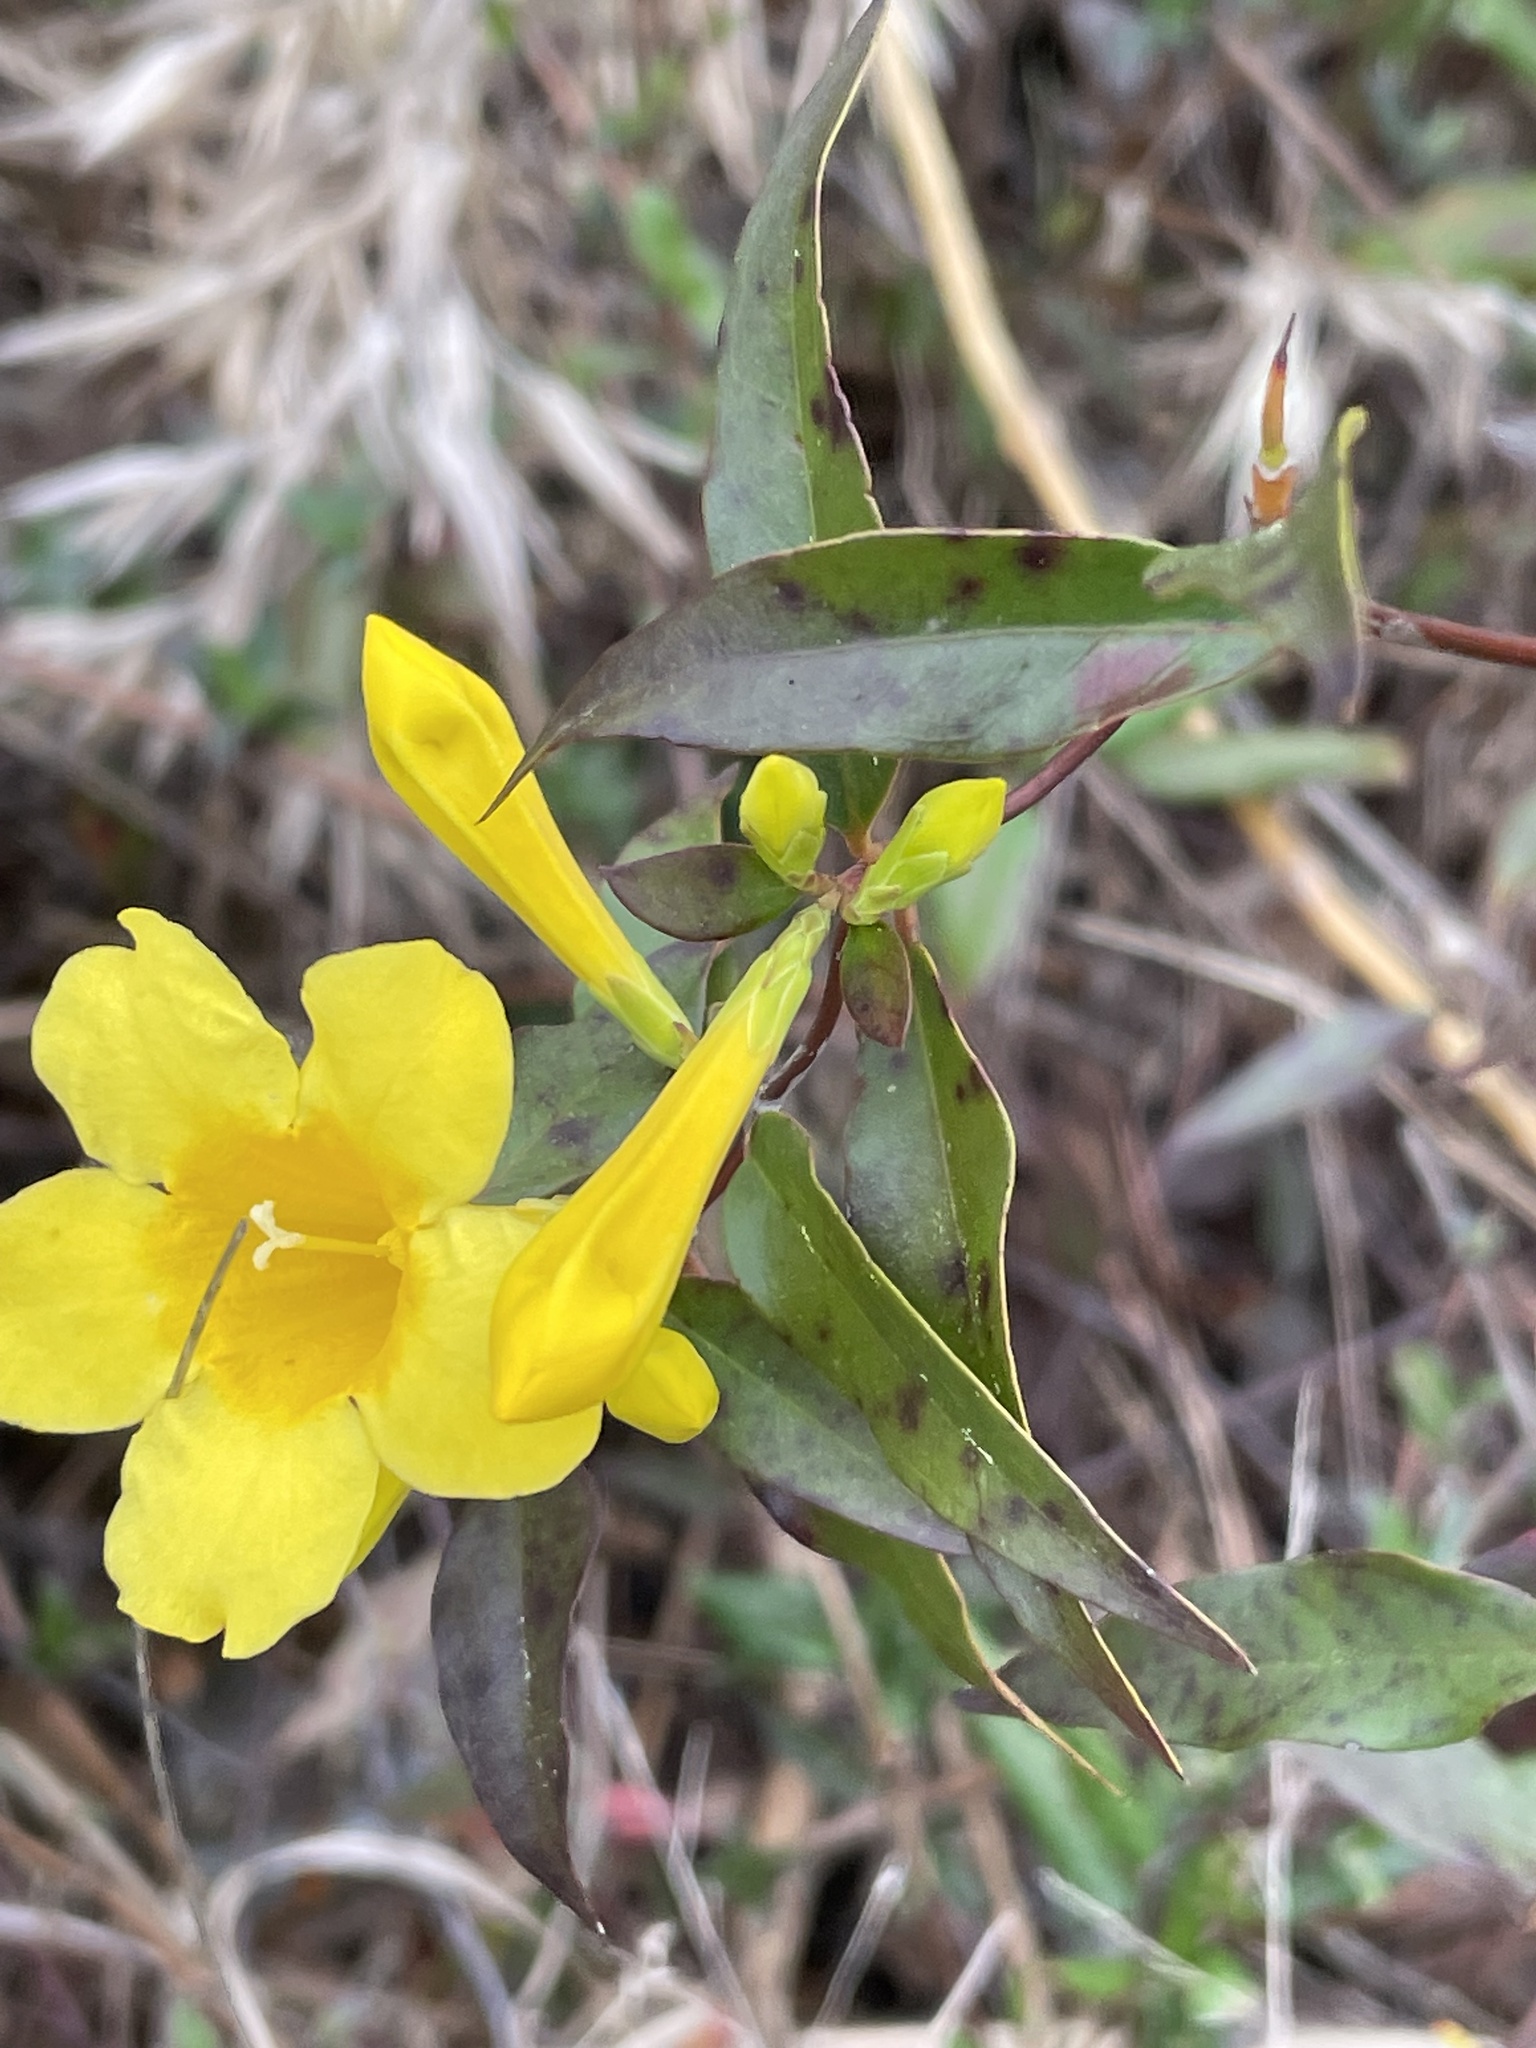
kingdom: Plantae
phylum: Tracheophyta
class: Magnoliopsida
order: Gentianales
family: Gelsemiaceae
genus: Gelsemium
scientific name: Gelsemium sempervirens
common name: Carolina-jasmine
